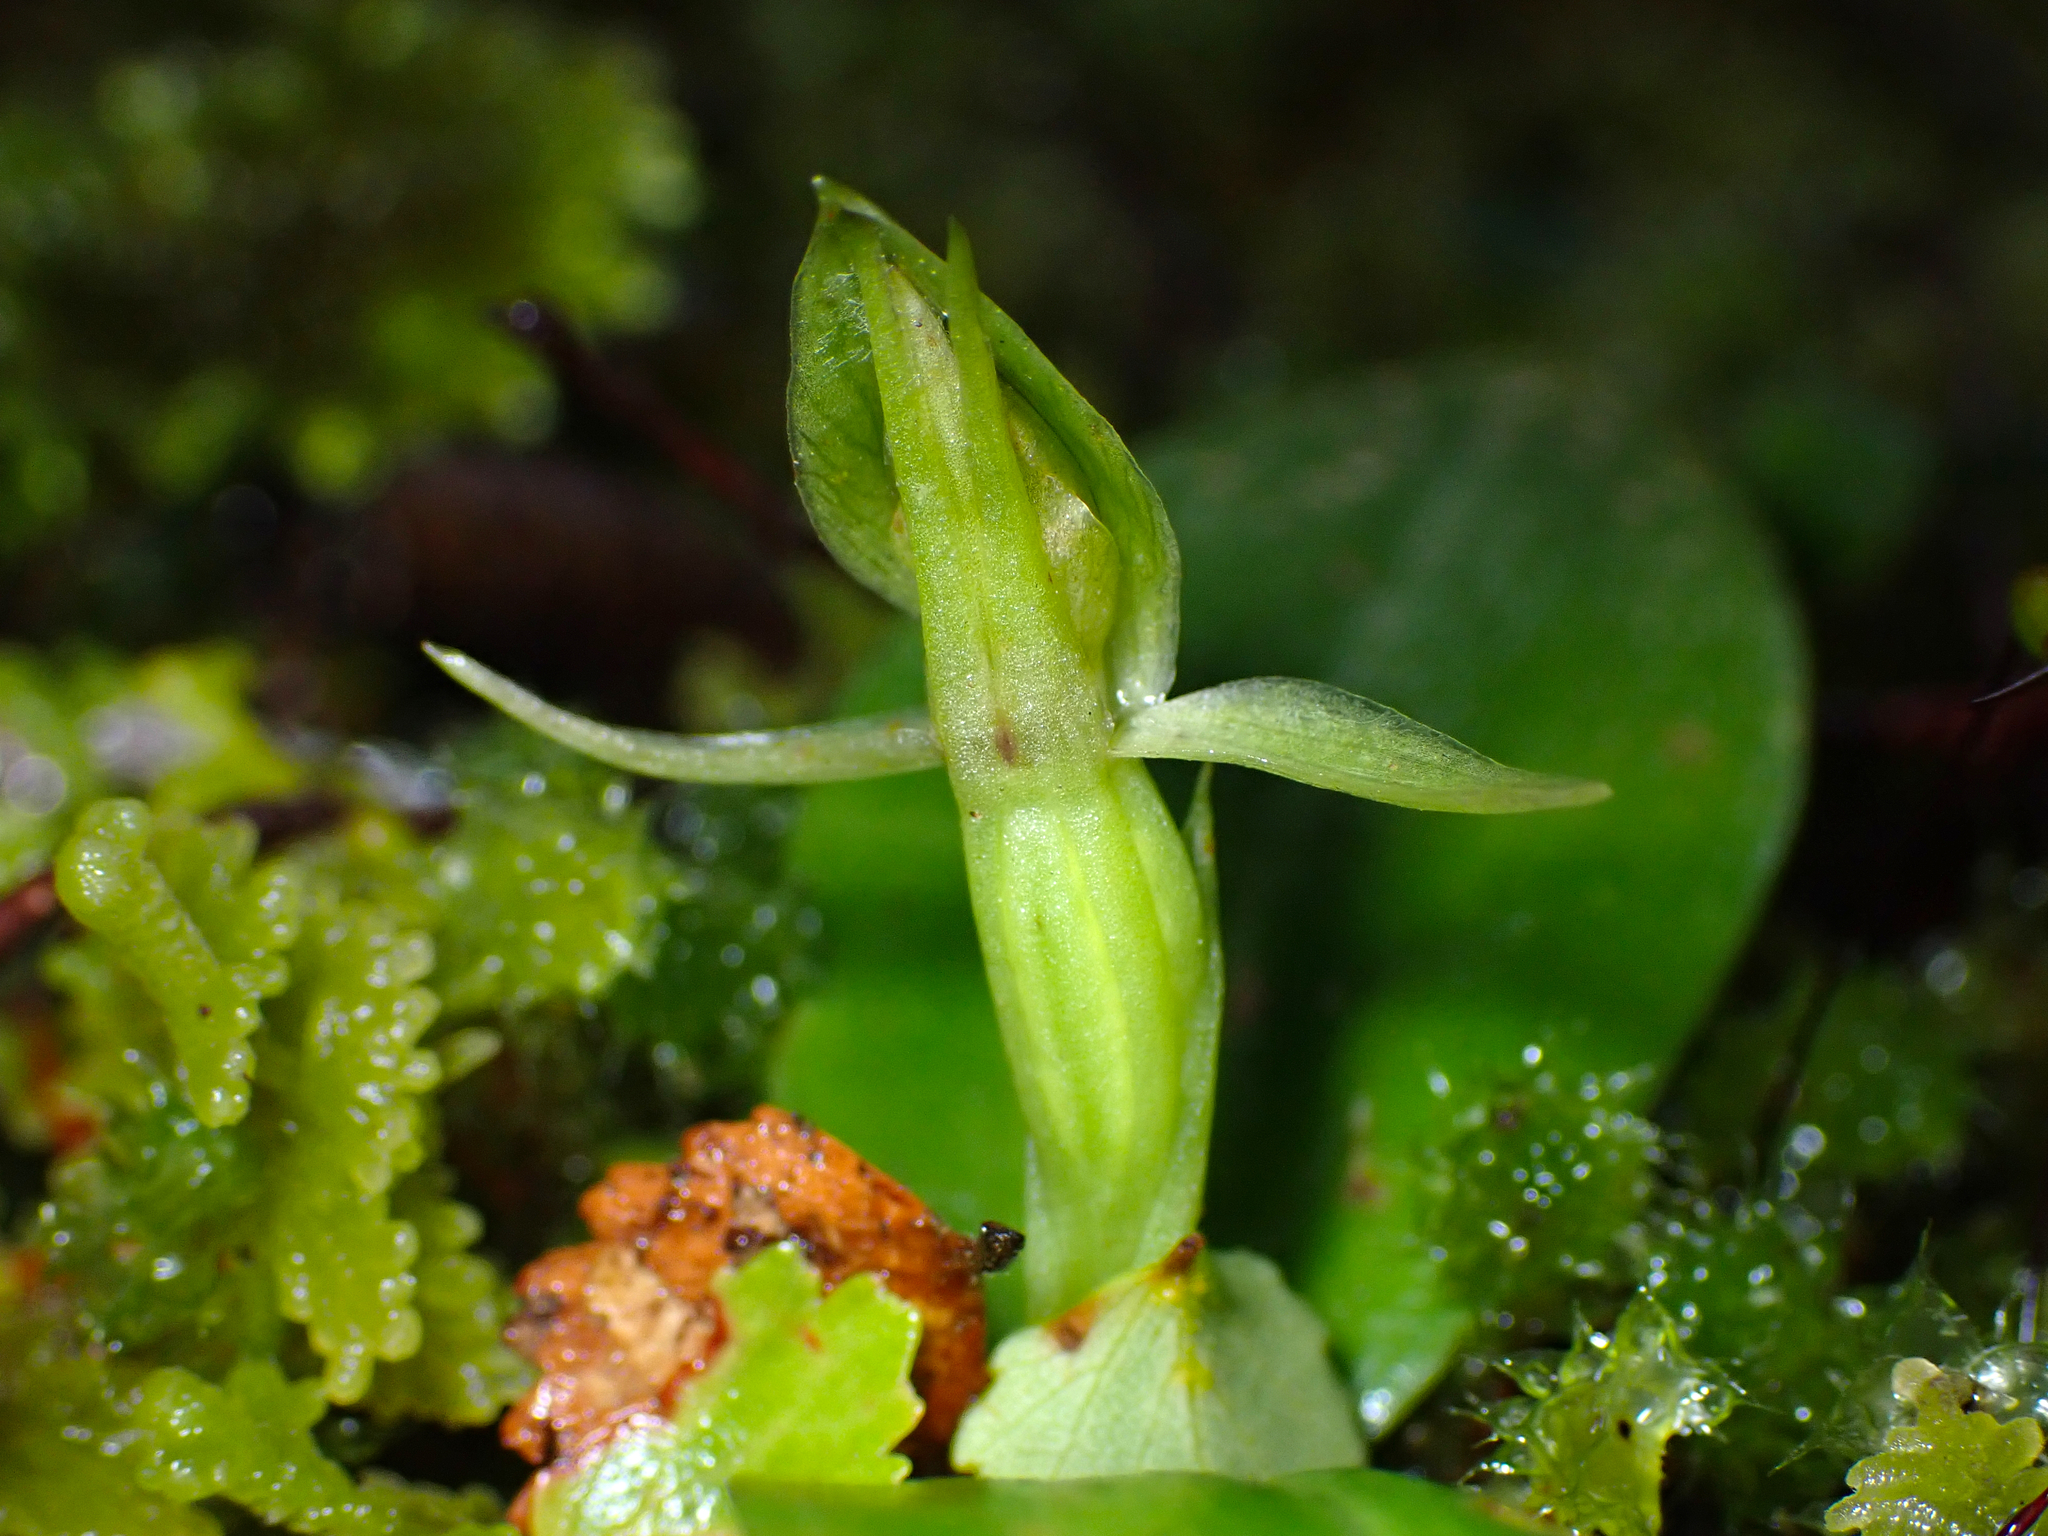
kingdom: Plantae
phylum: Tracheophyta
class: Liliopsida
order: Asparagales
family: Orchidaceae
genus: Chiloglottis
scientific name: Chiloglottis cornuta
